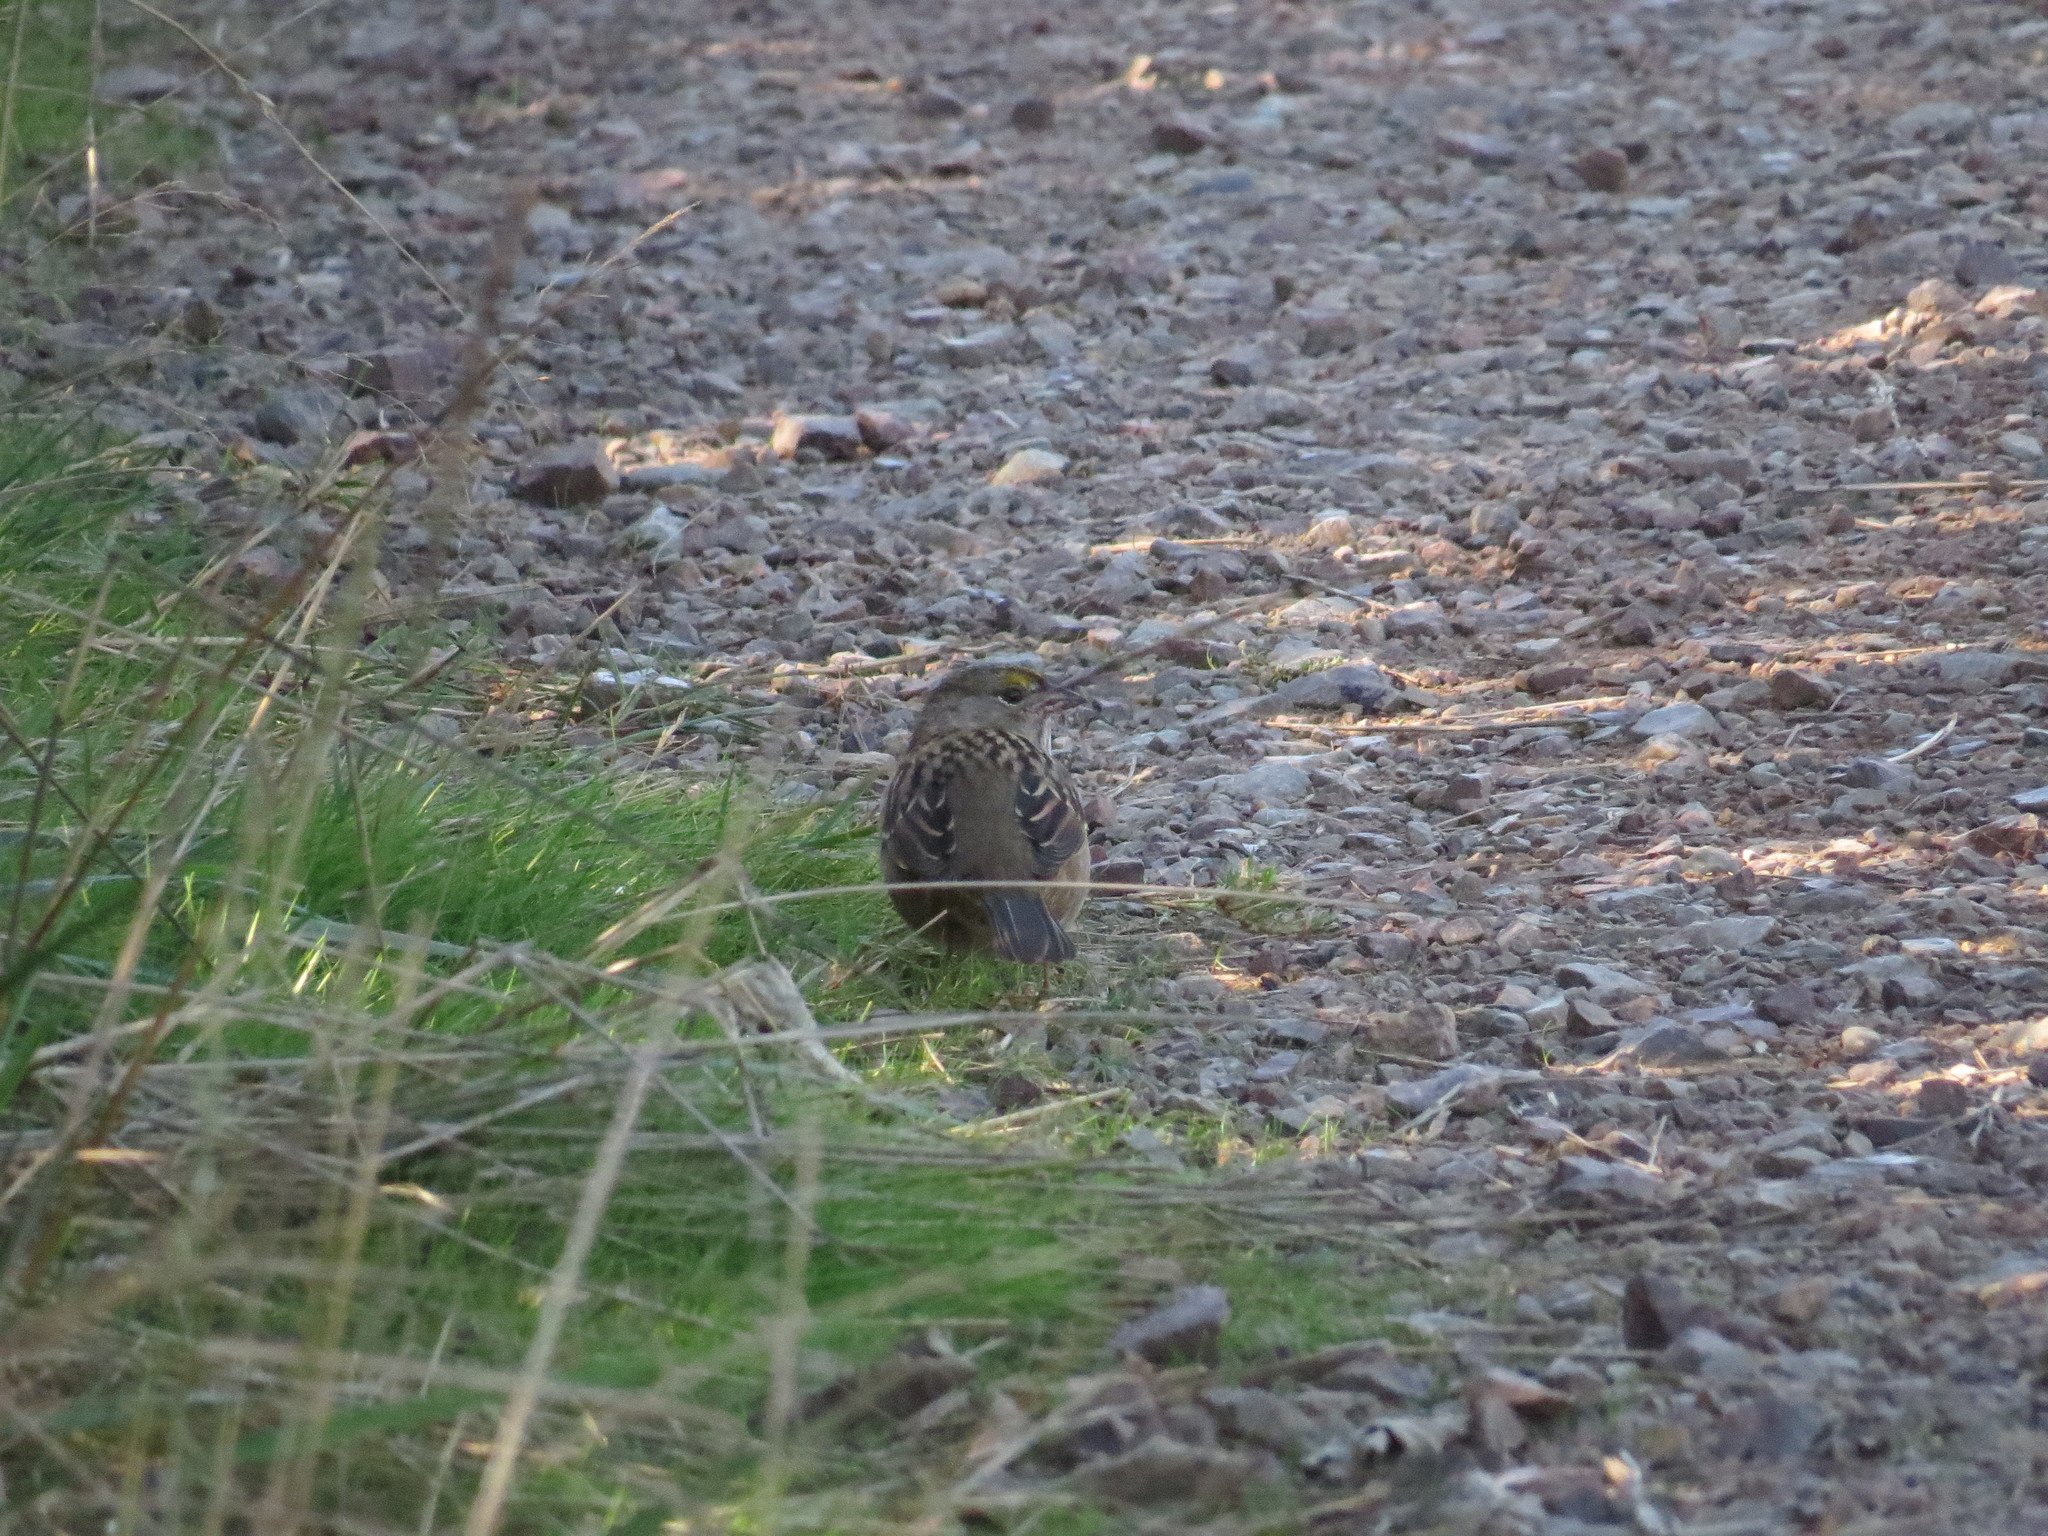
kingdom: Animalia
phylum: Chordata
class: Aves
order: Passeriformes
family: Passerellidae
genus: Zonotrichia
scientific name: Zonotrichia atricapilla
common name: Golden-crowned sparrow
